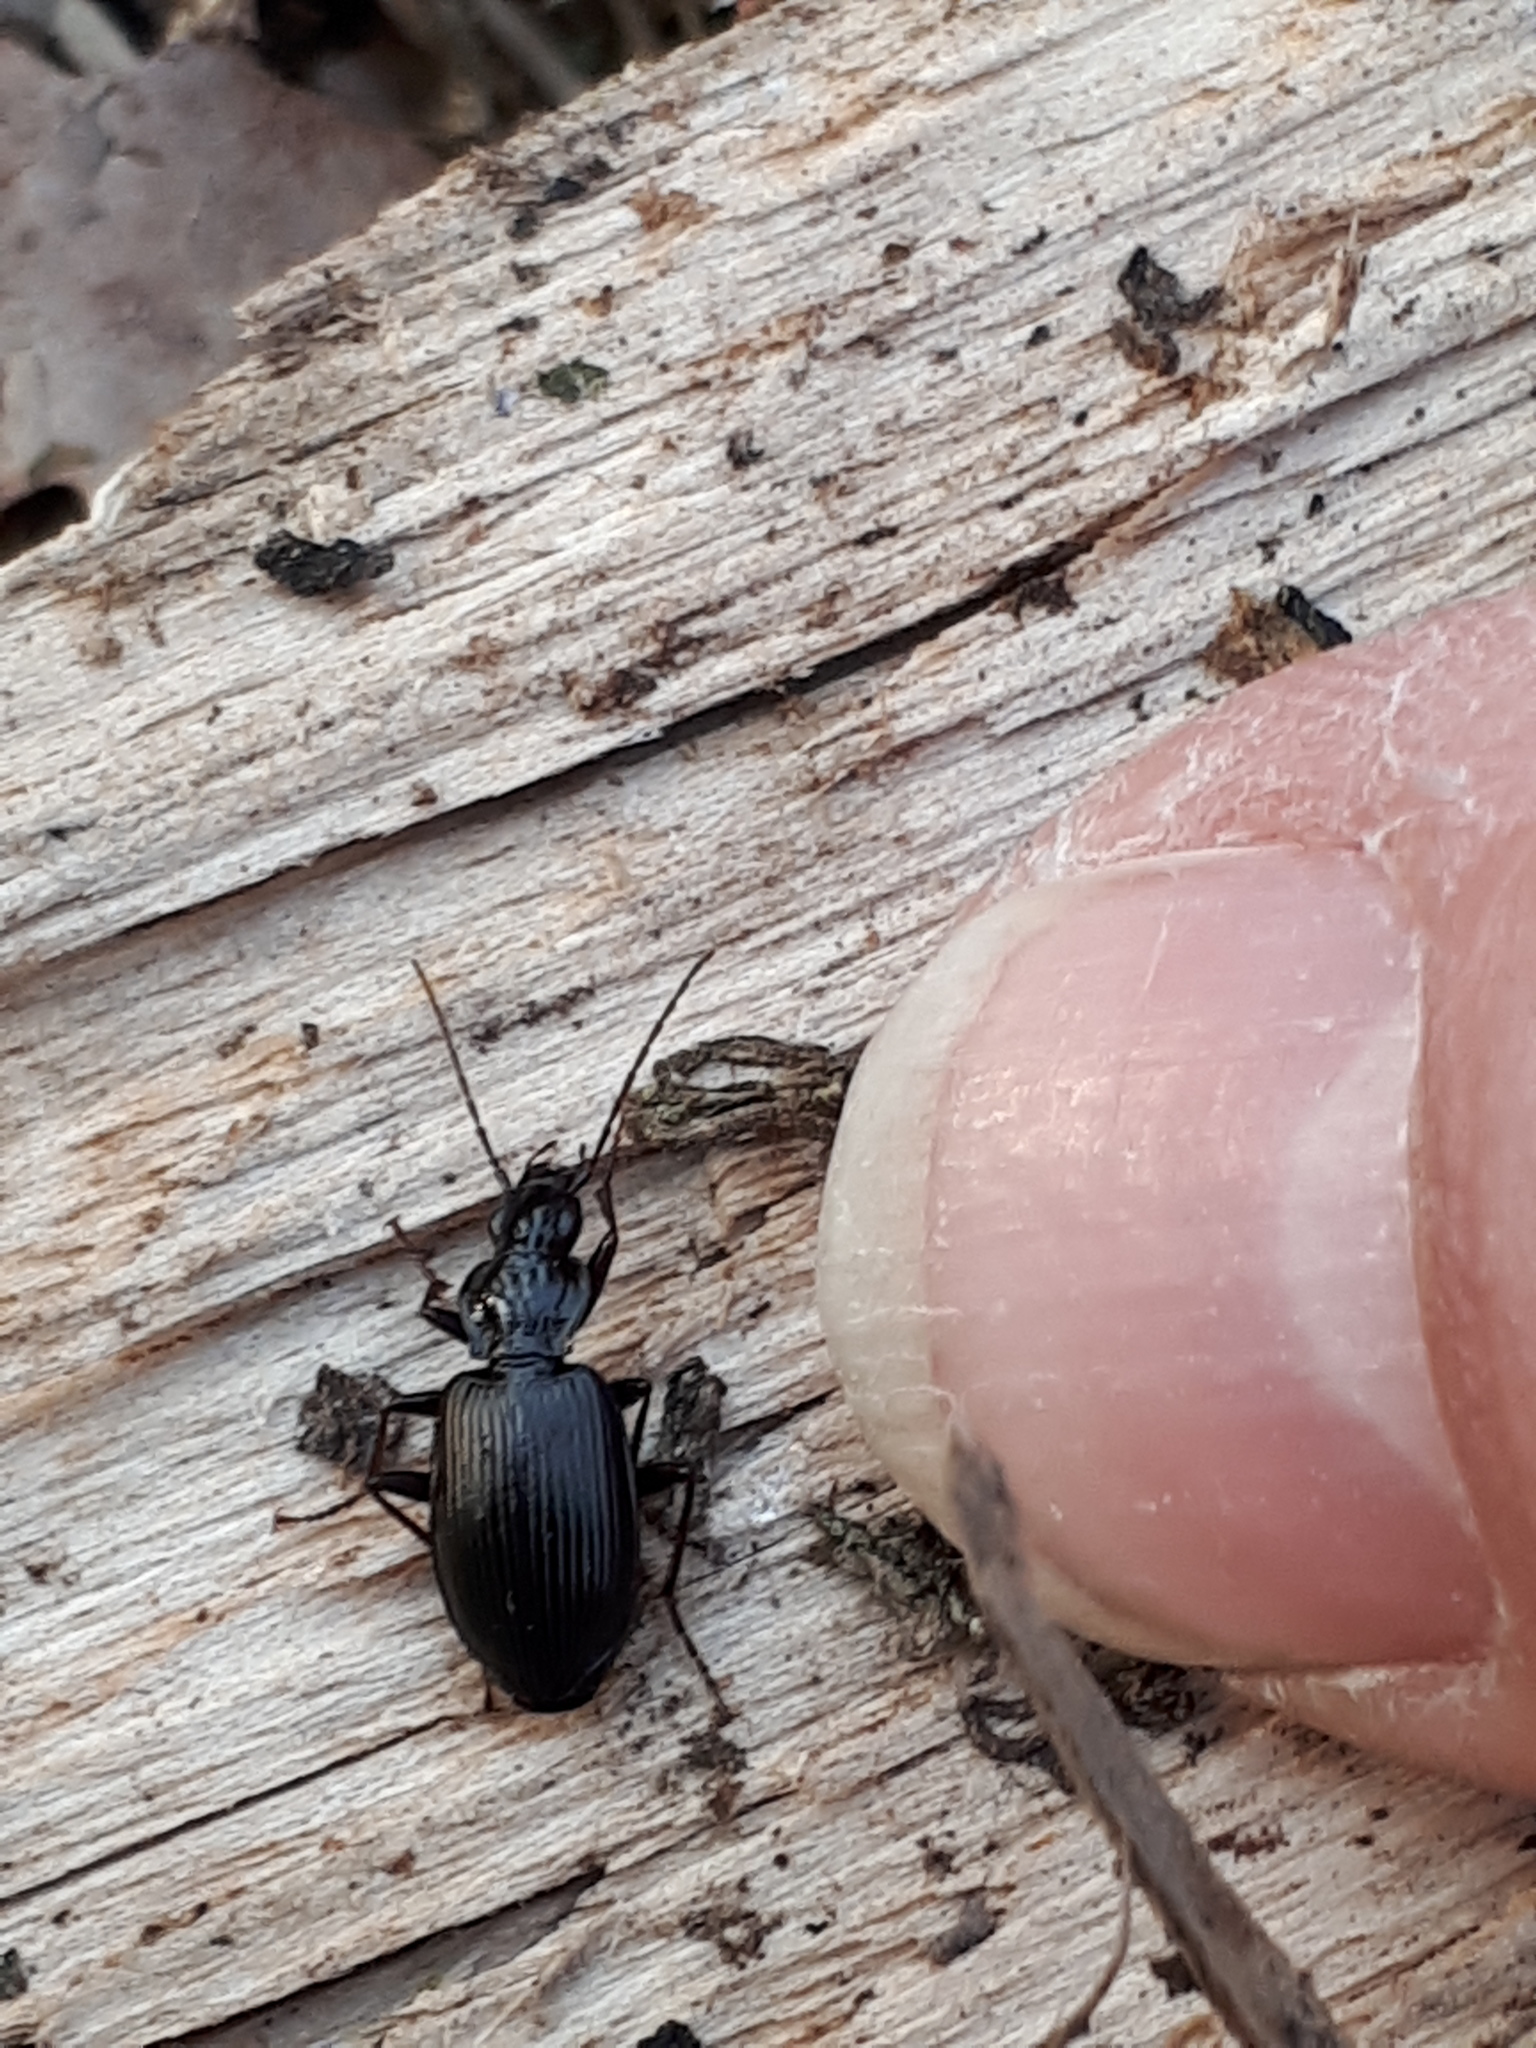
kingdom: Animalia
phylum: Arthropoda
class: Insecta
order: Coleoptera
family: Carabidae
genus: Platynus
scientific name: Platynus assimilis
